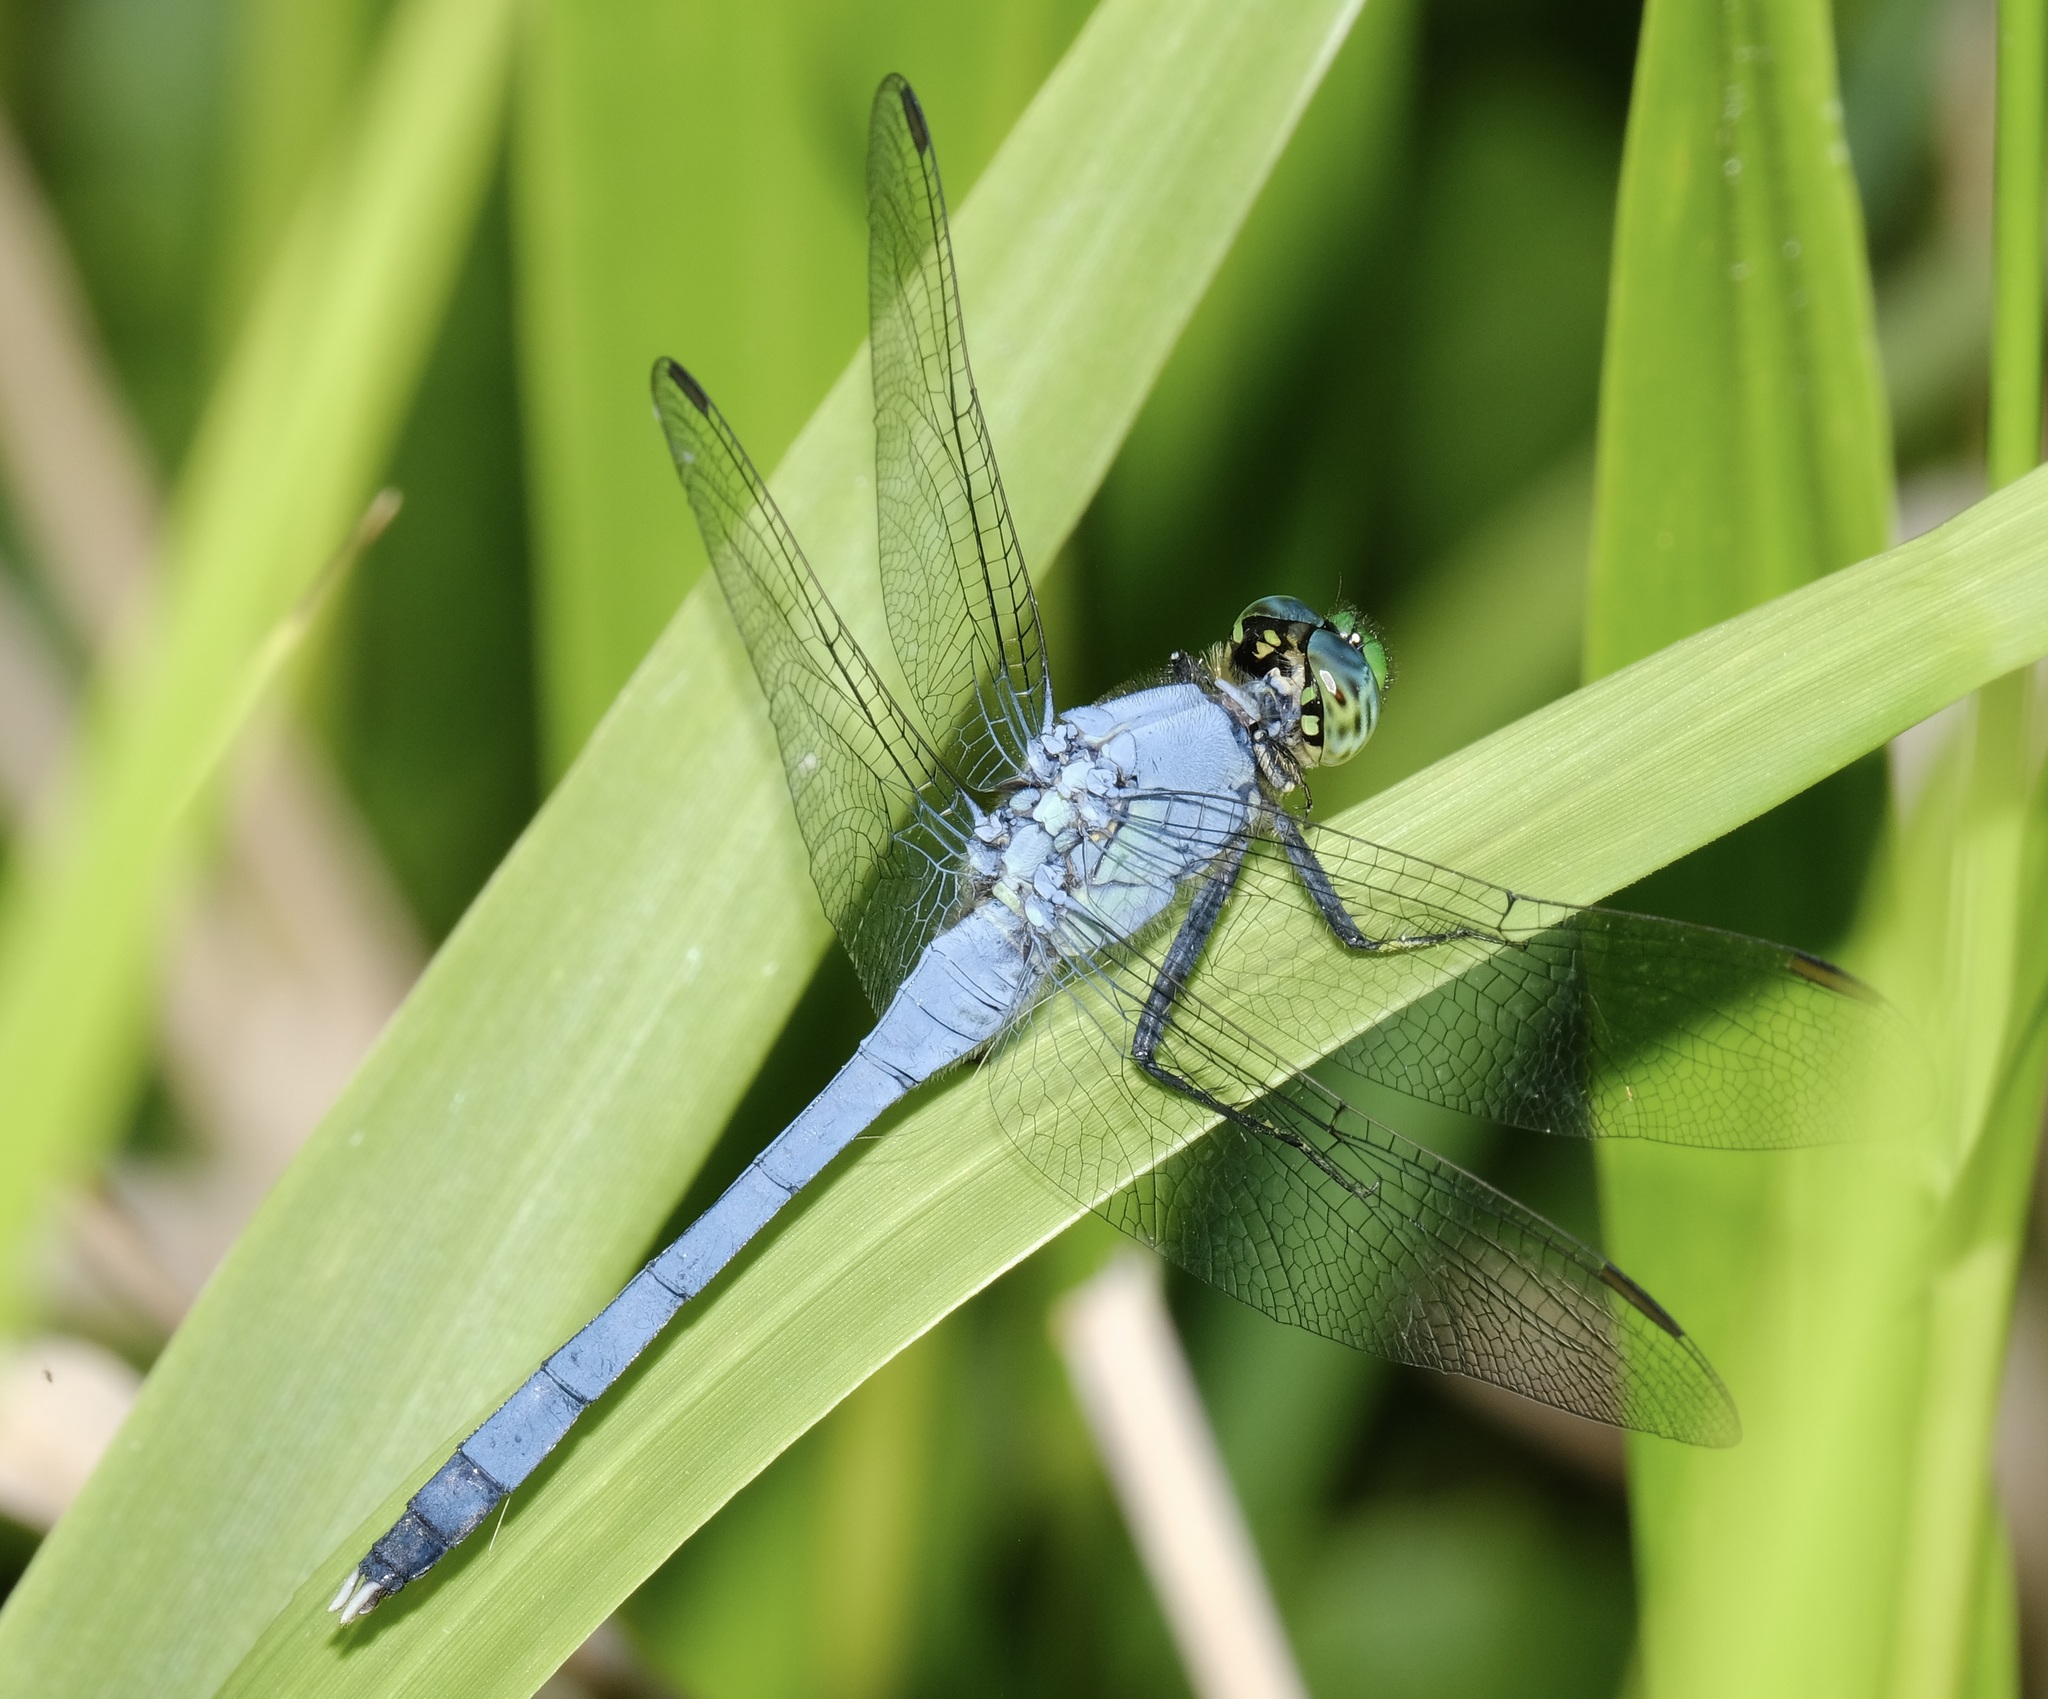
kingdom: Animalia
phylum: Arthropoda
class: Insecta
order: Odonata
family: Libellulidae
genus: Erythemis
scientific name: Erythemis simplicicollis
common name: Eastern pondhawk
